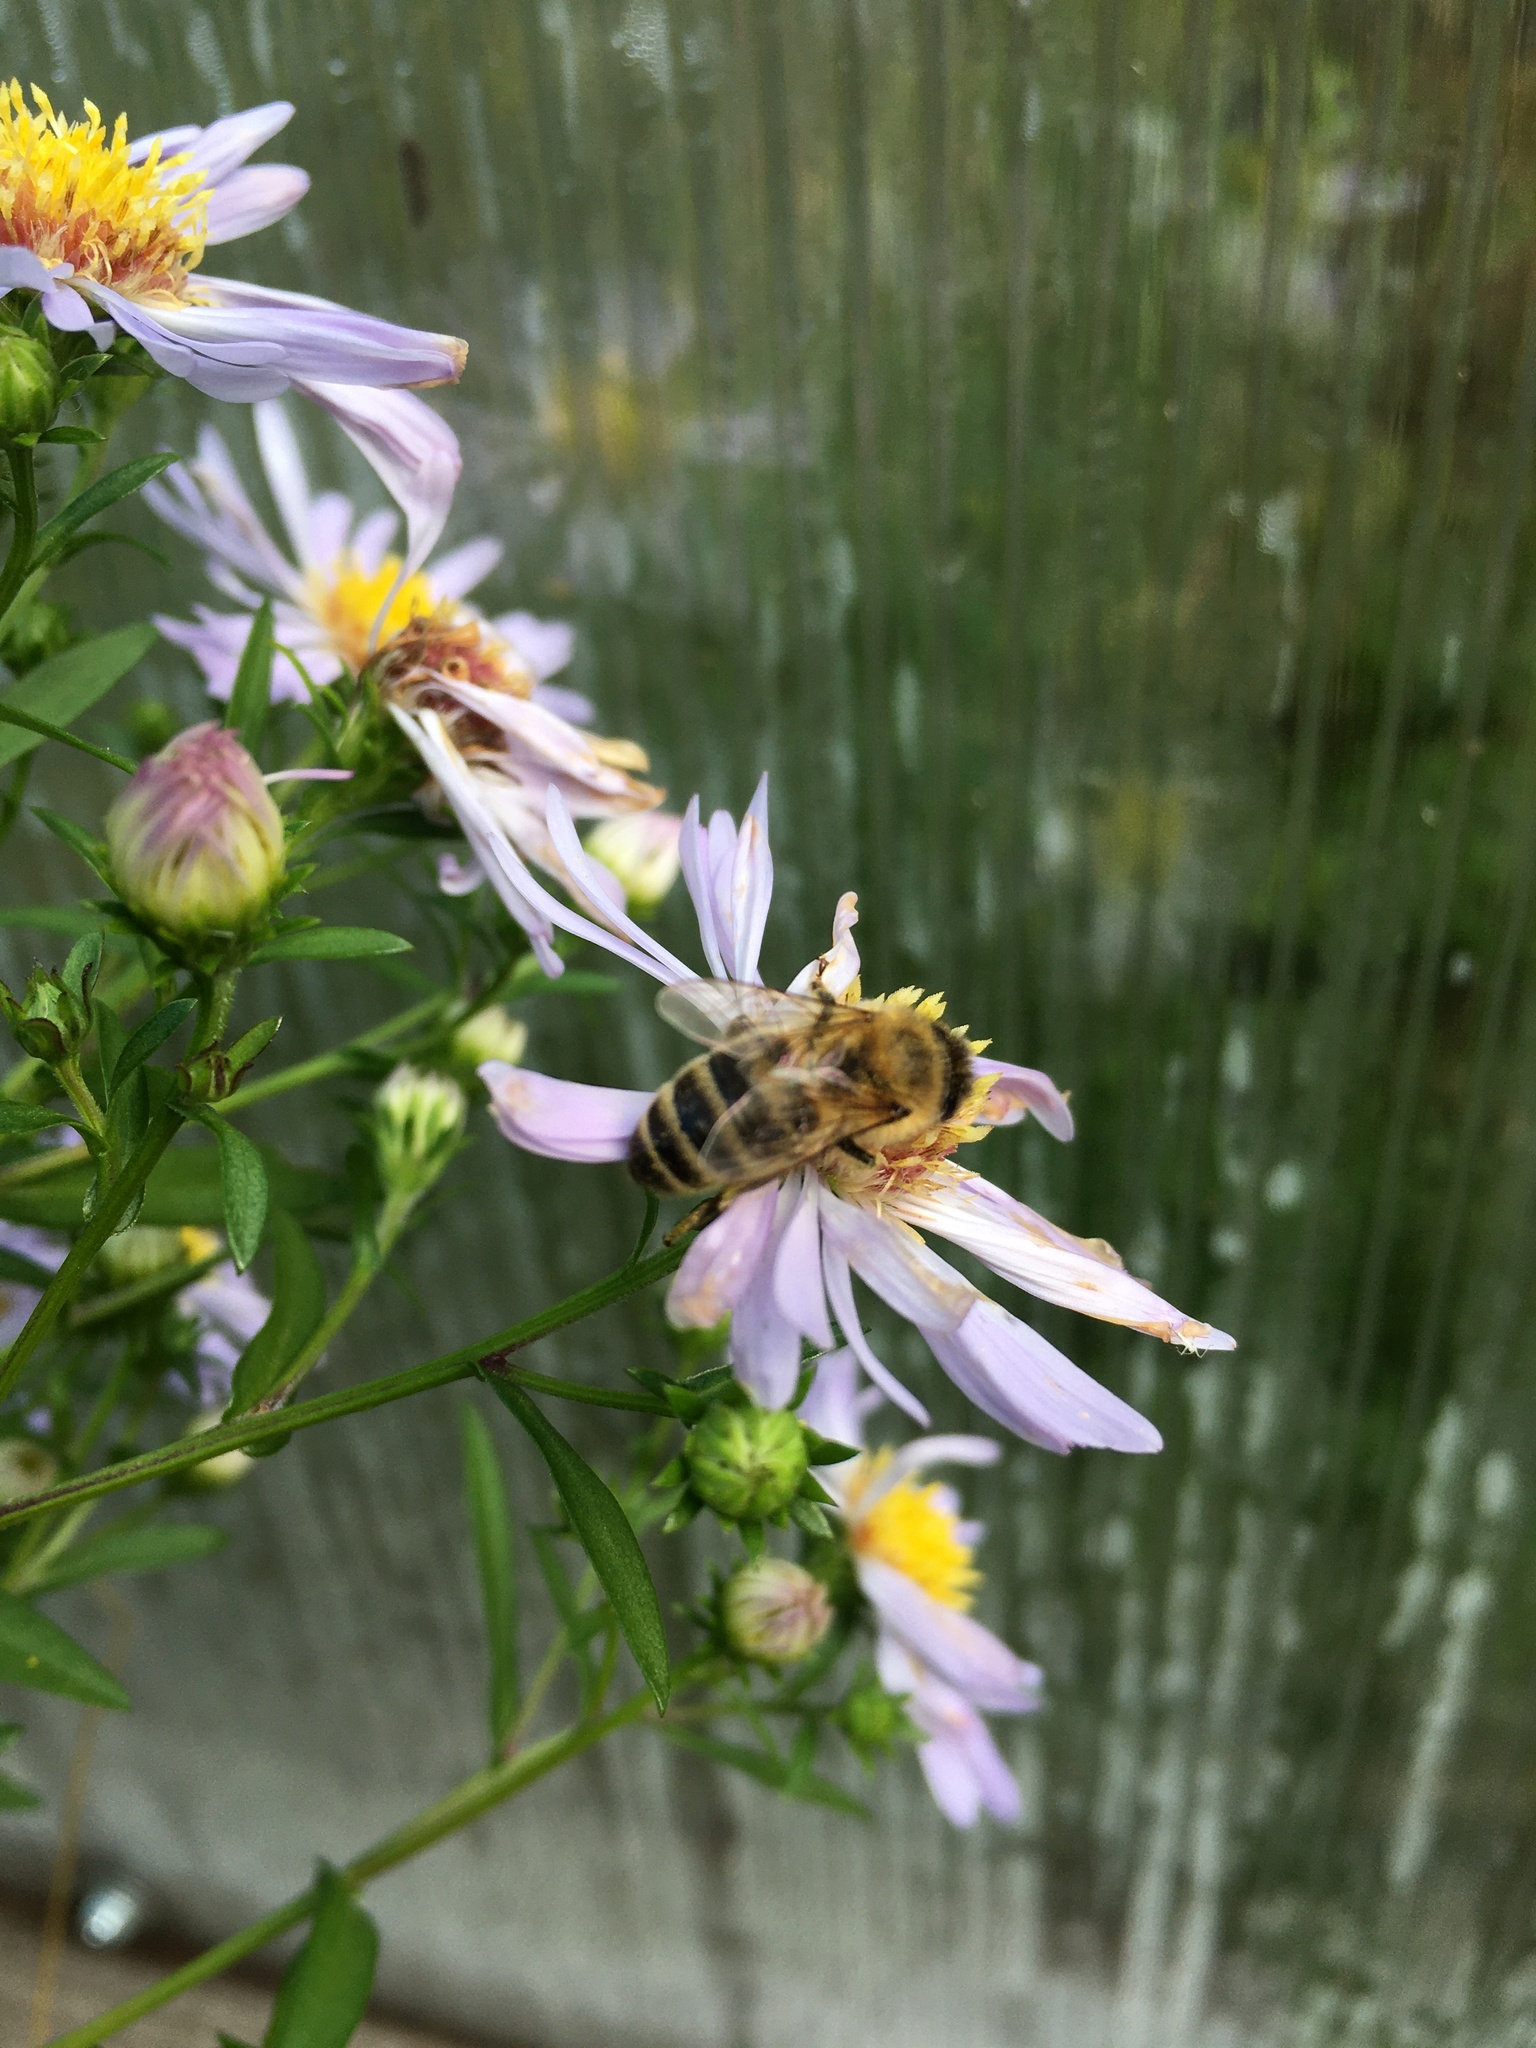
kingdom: Animalia
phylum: Arthropoda
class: Insecta
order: Hymenoptera
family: Apidae
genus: Apis
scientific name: Apis mellifera
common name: Honey bee
